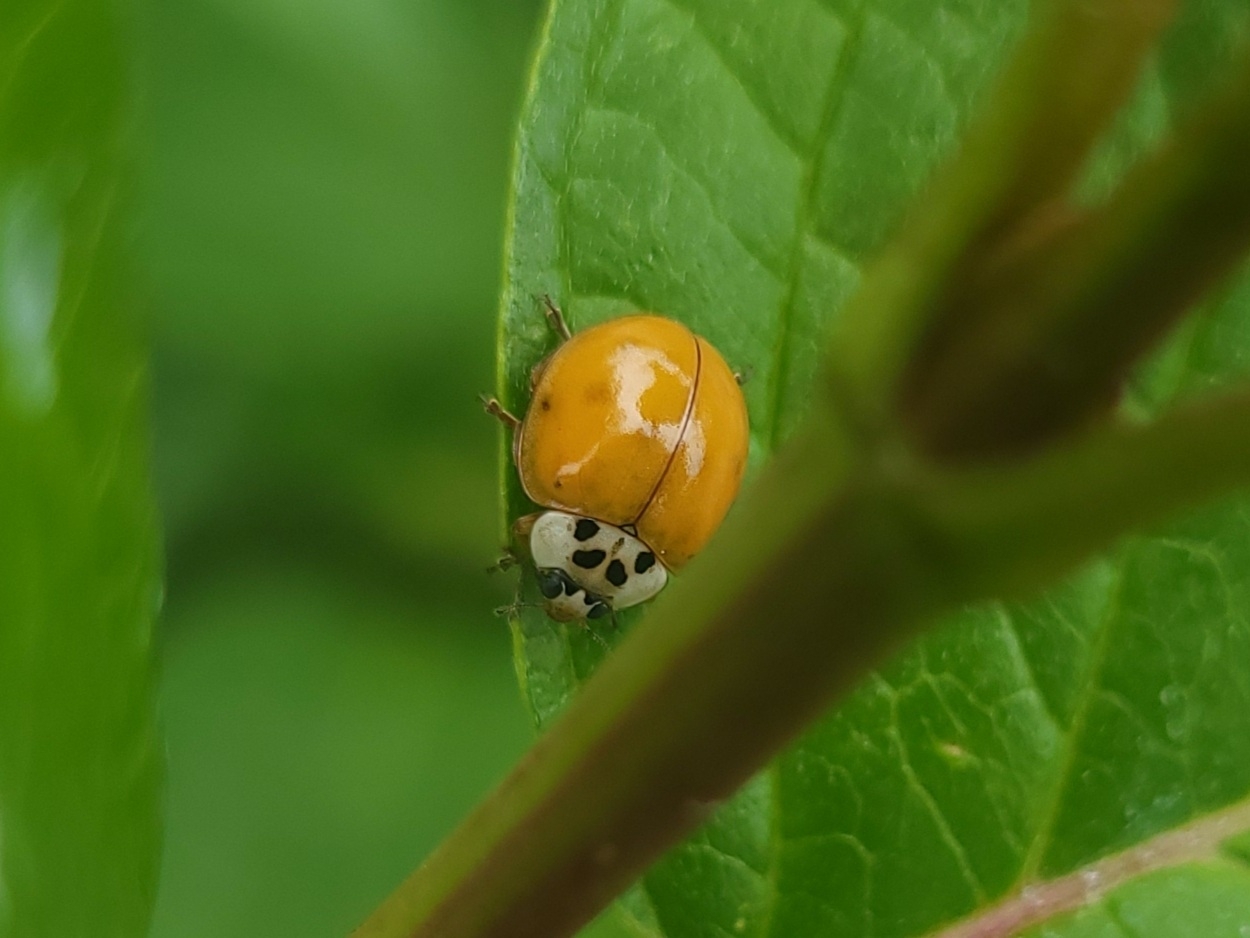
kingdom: Animalia
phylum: Arthropoda
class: Insecta
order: Coleoptera
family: Coccinellidae
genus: Harmonia
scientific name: Harmonia axyridis
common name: Harlequin ladybird
